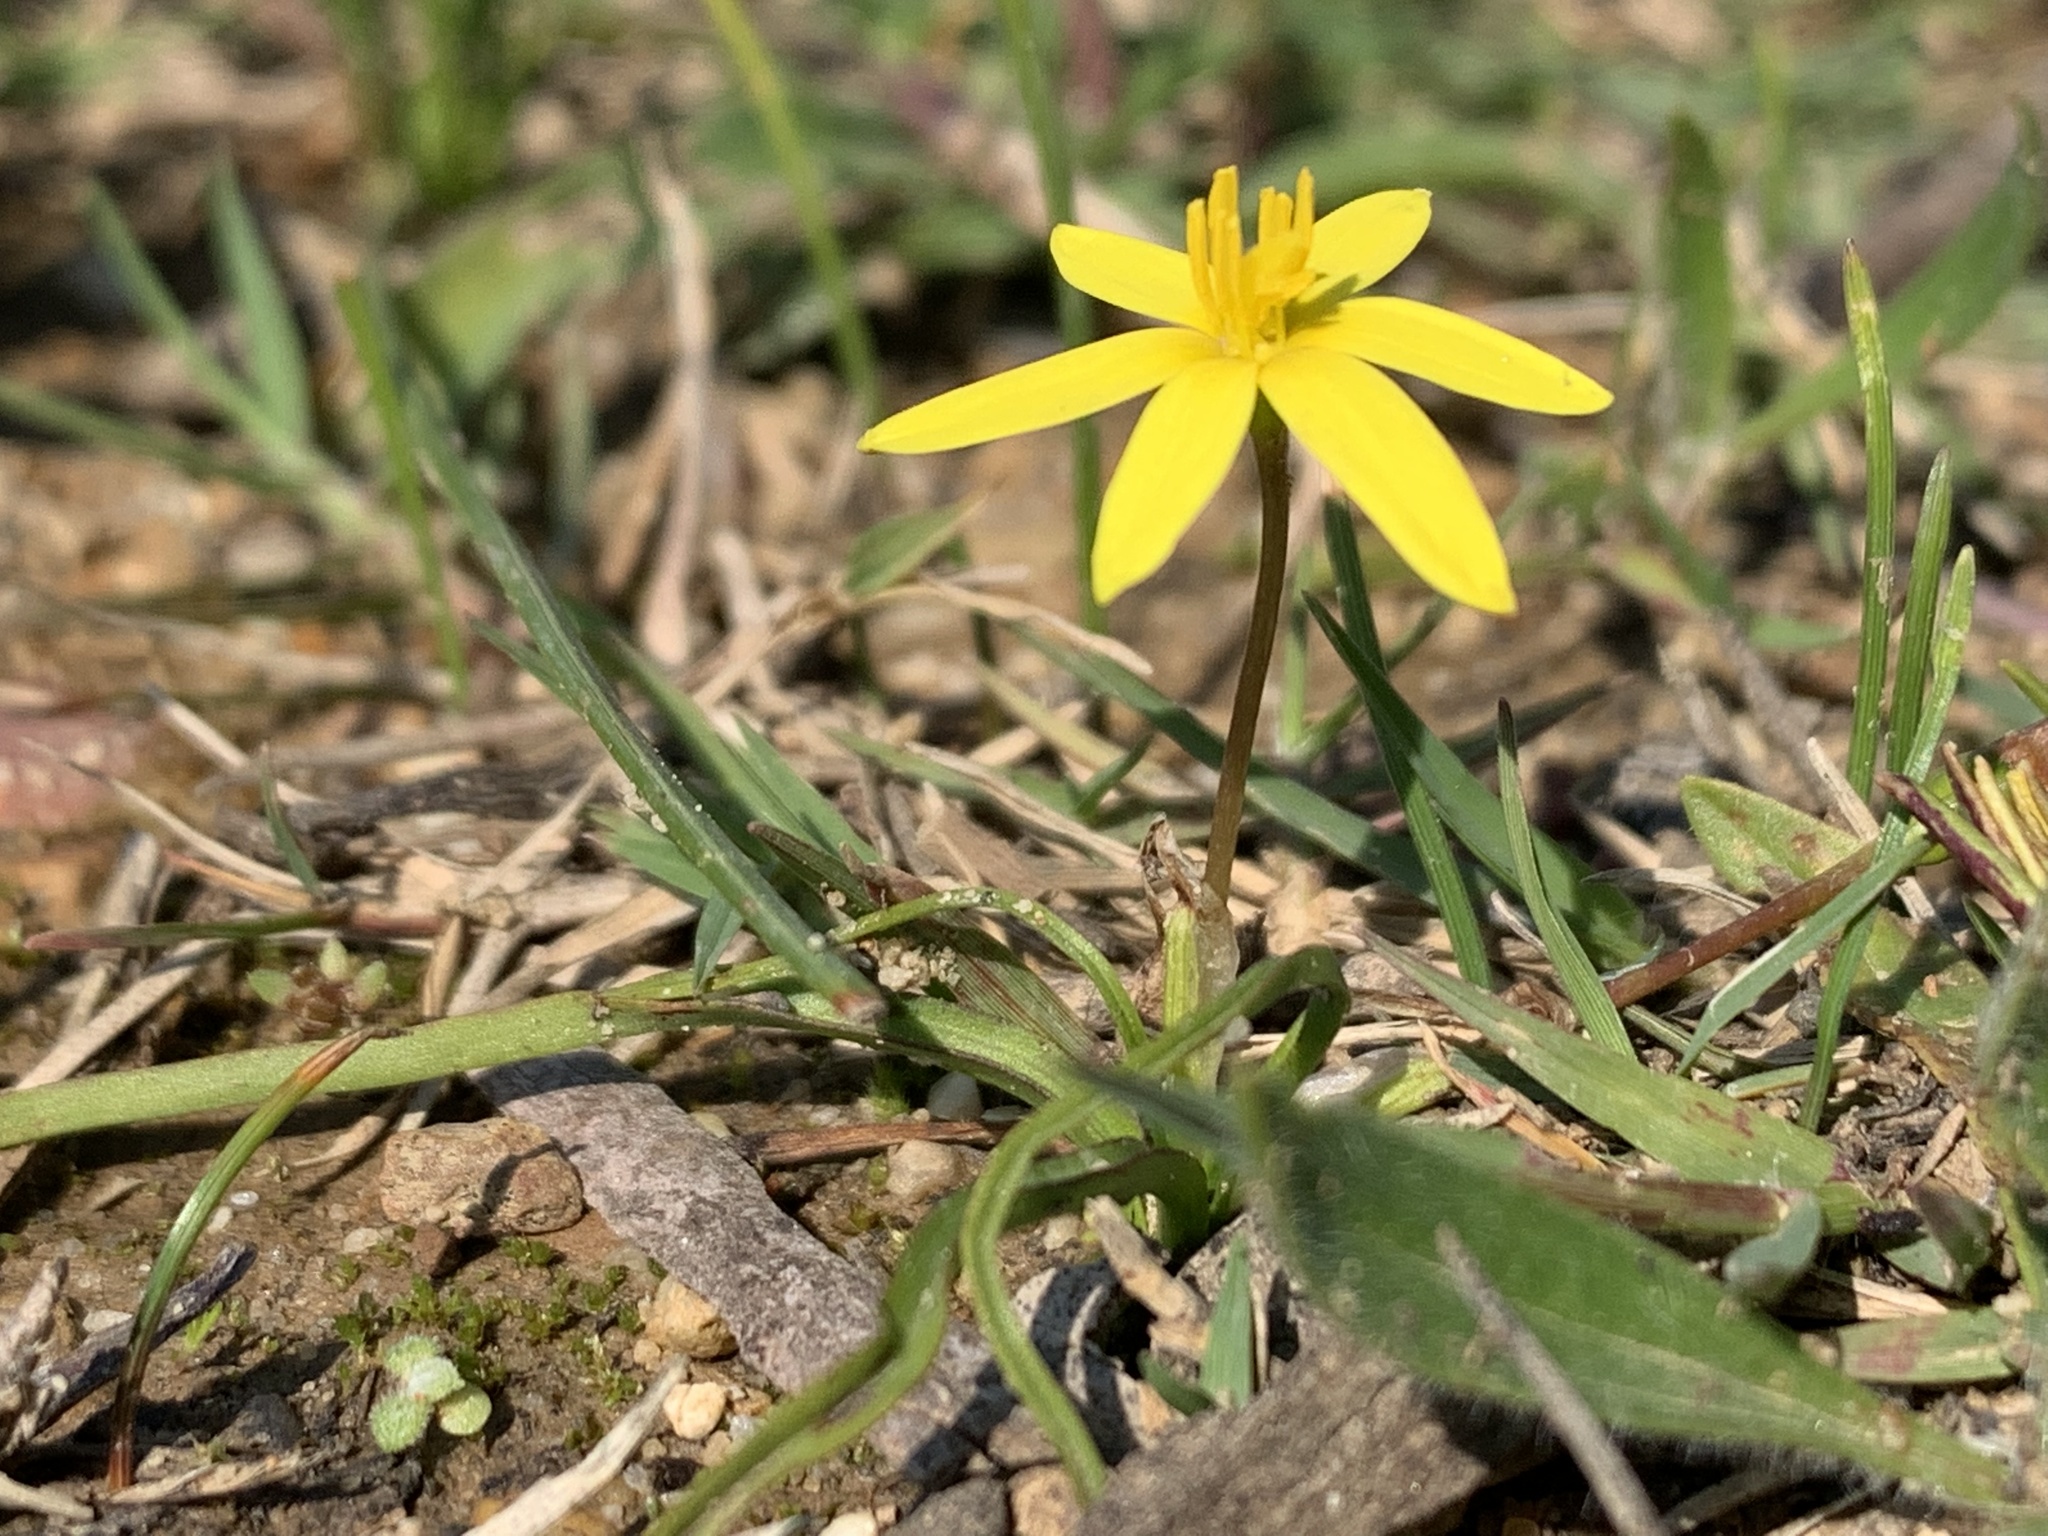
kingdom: Plantae
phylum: Tracheophyta
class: Liliopsida
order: Asparagales
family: Hypoxidaceae
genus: Pauridia
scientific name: Pauridia flaccida
